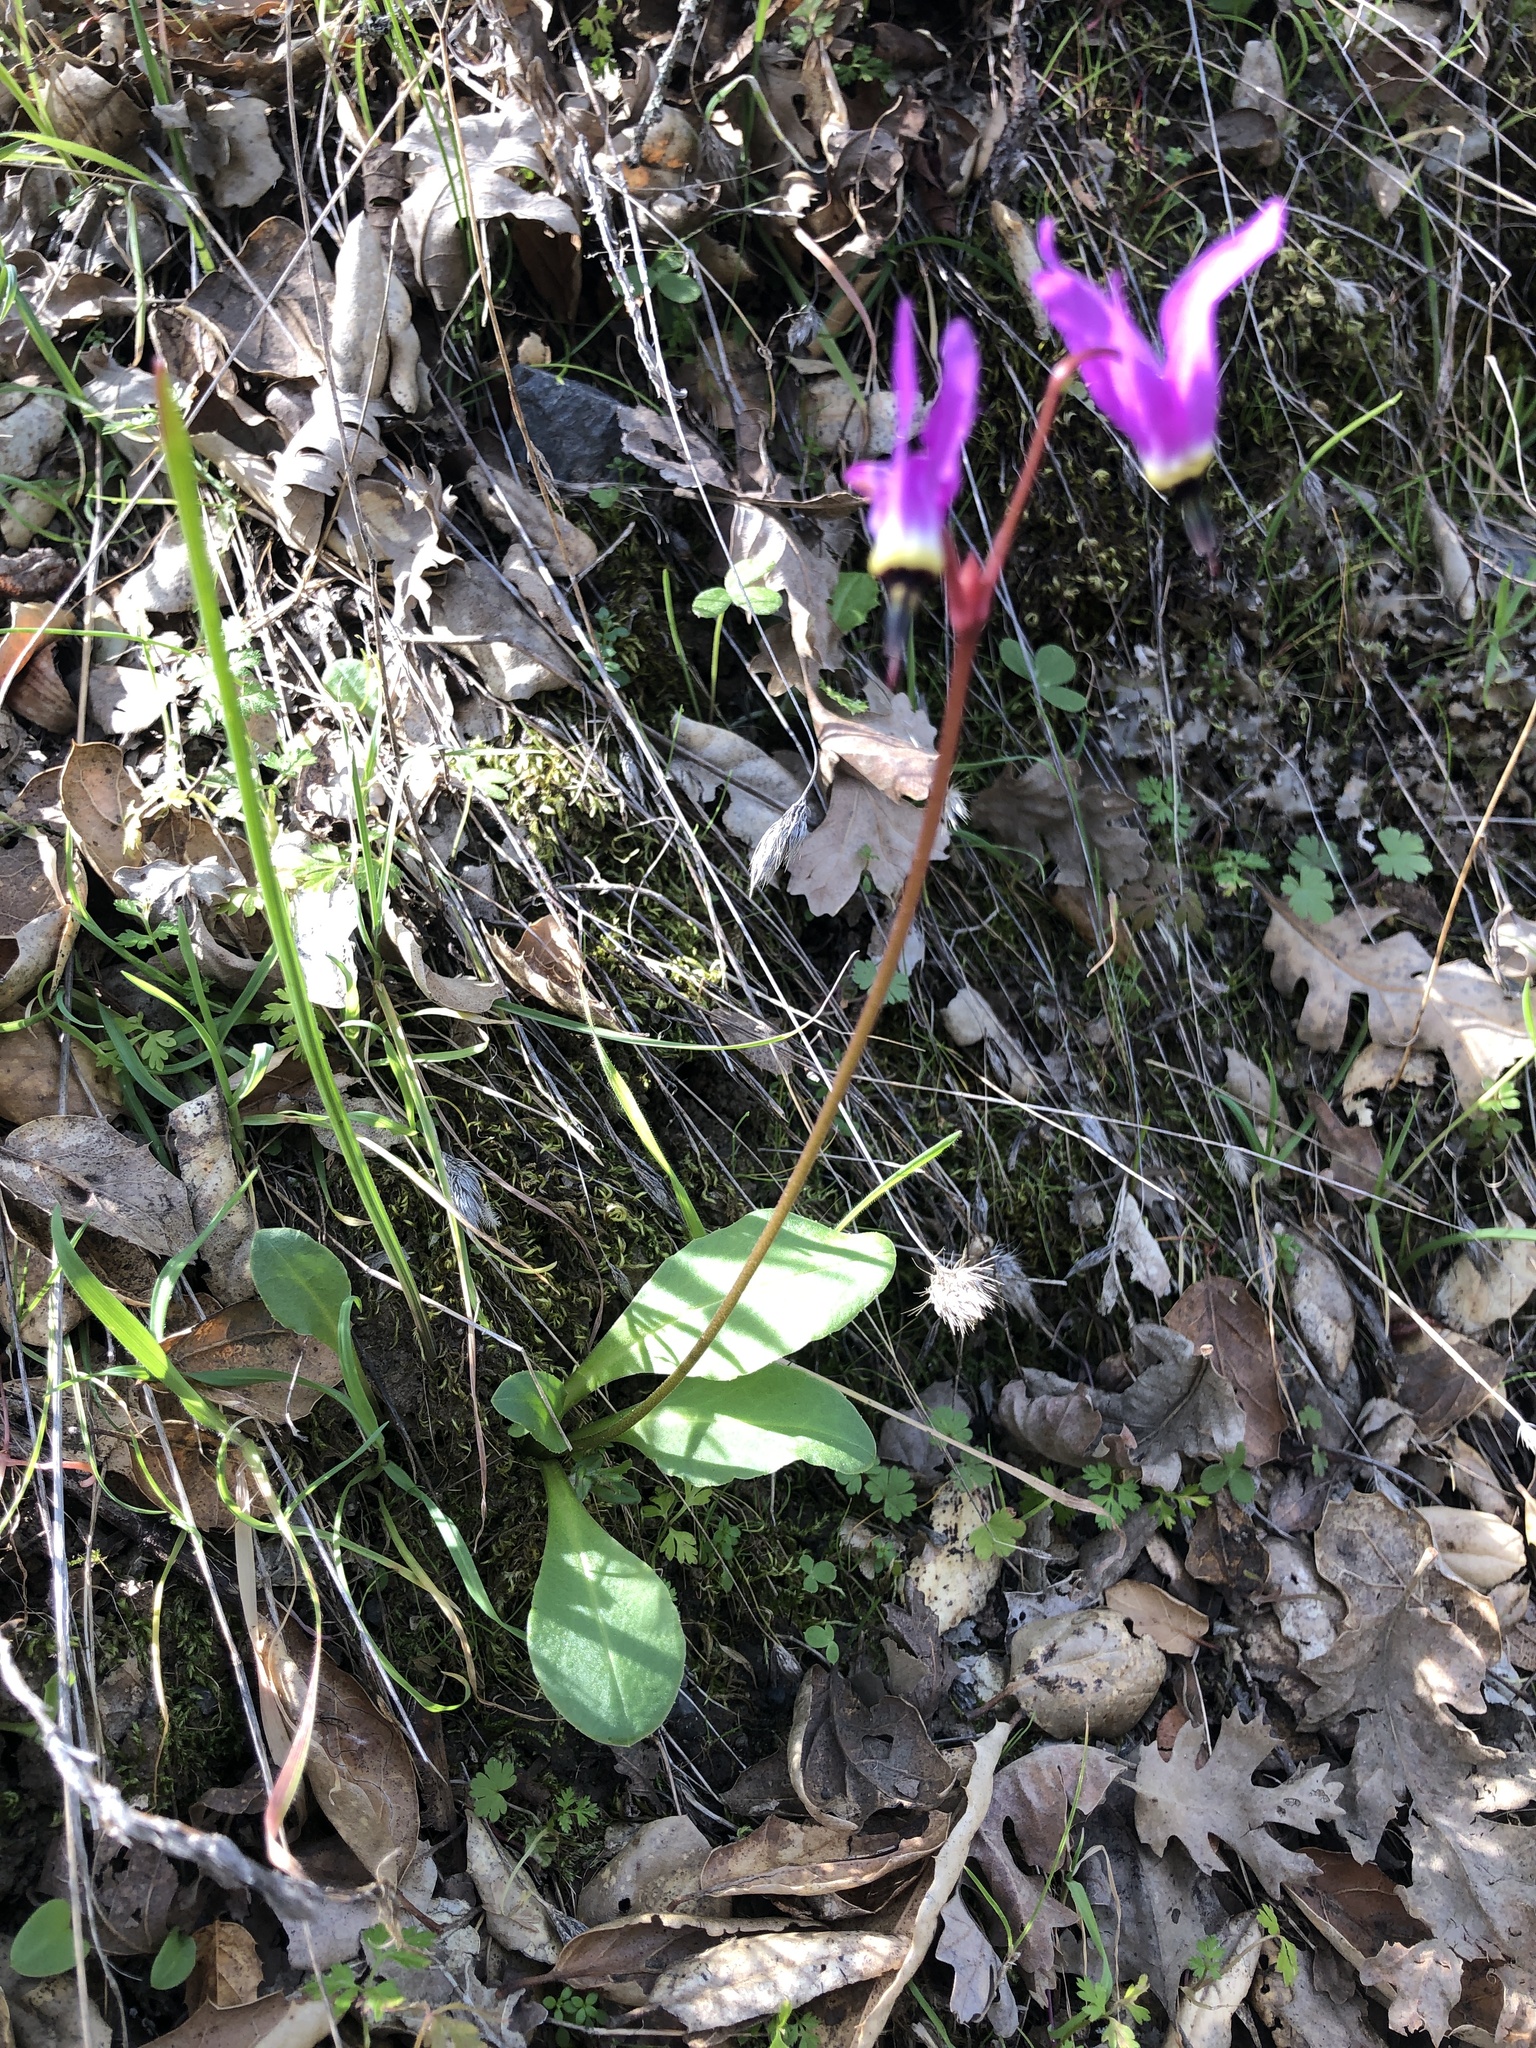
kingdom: Plantae
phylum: Tracheophyta
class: Magnoliopsida
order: Ericales
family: Primulaceae
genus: Dodecatheon
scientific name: Dodecatheon hendersonii
